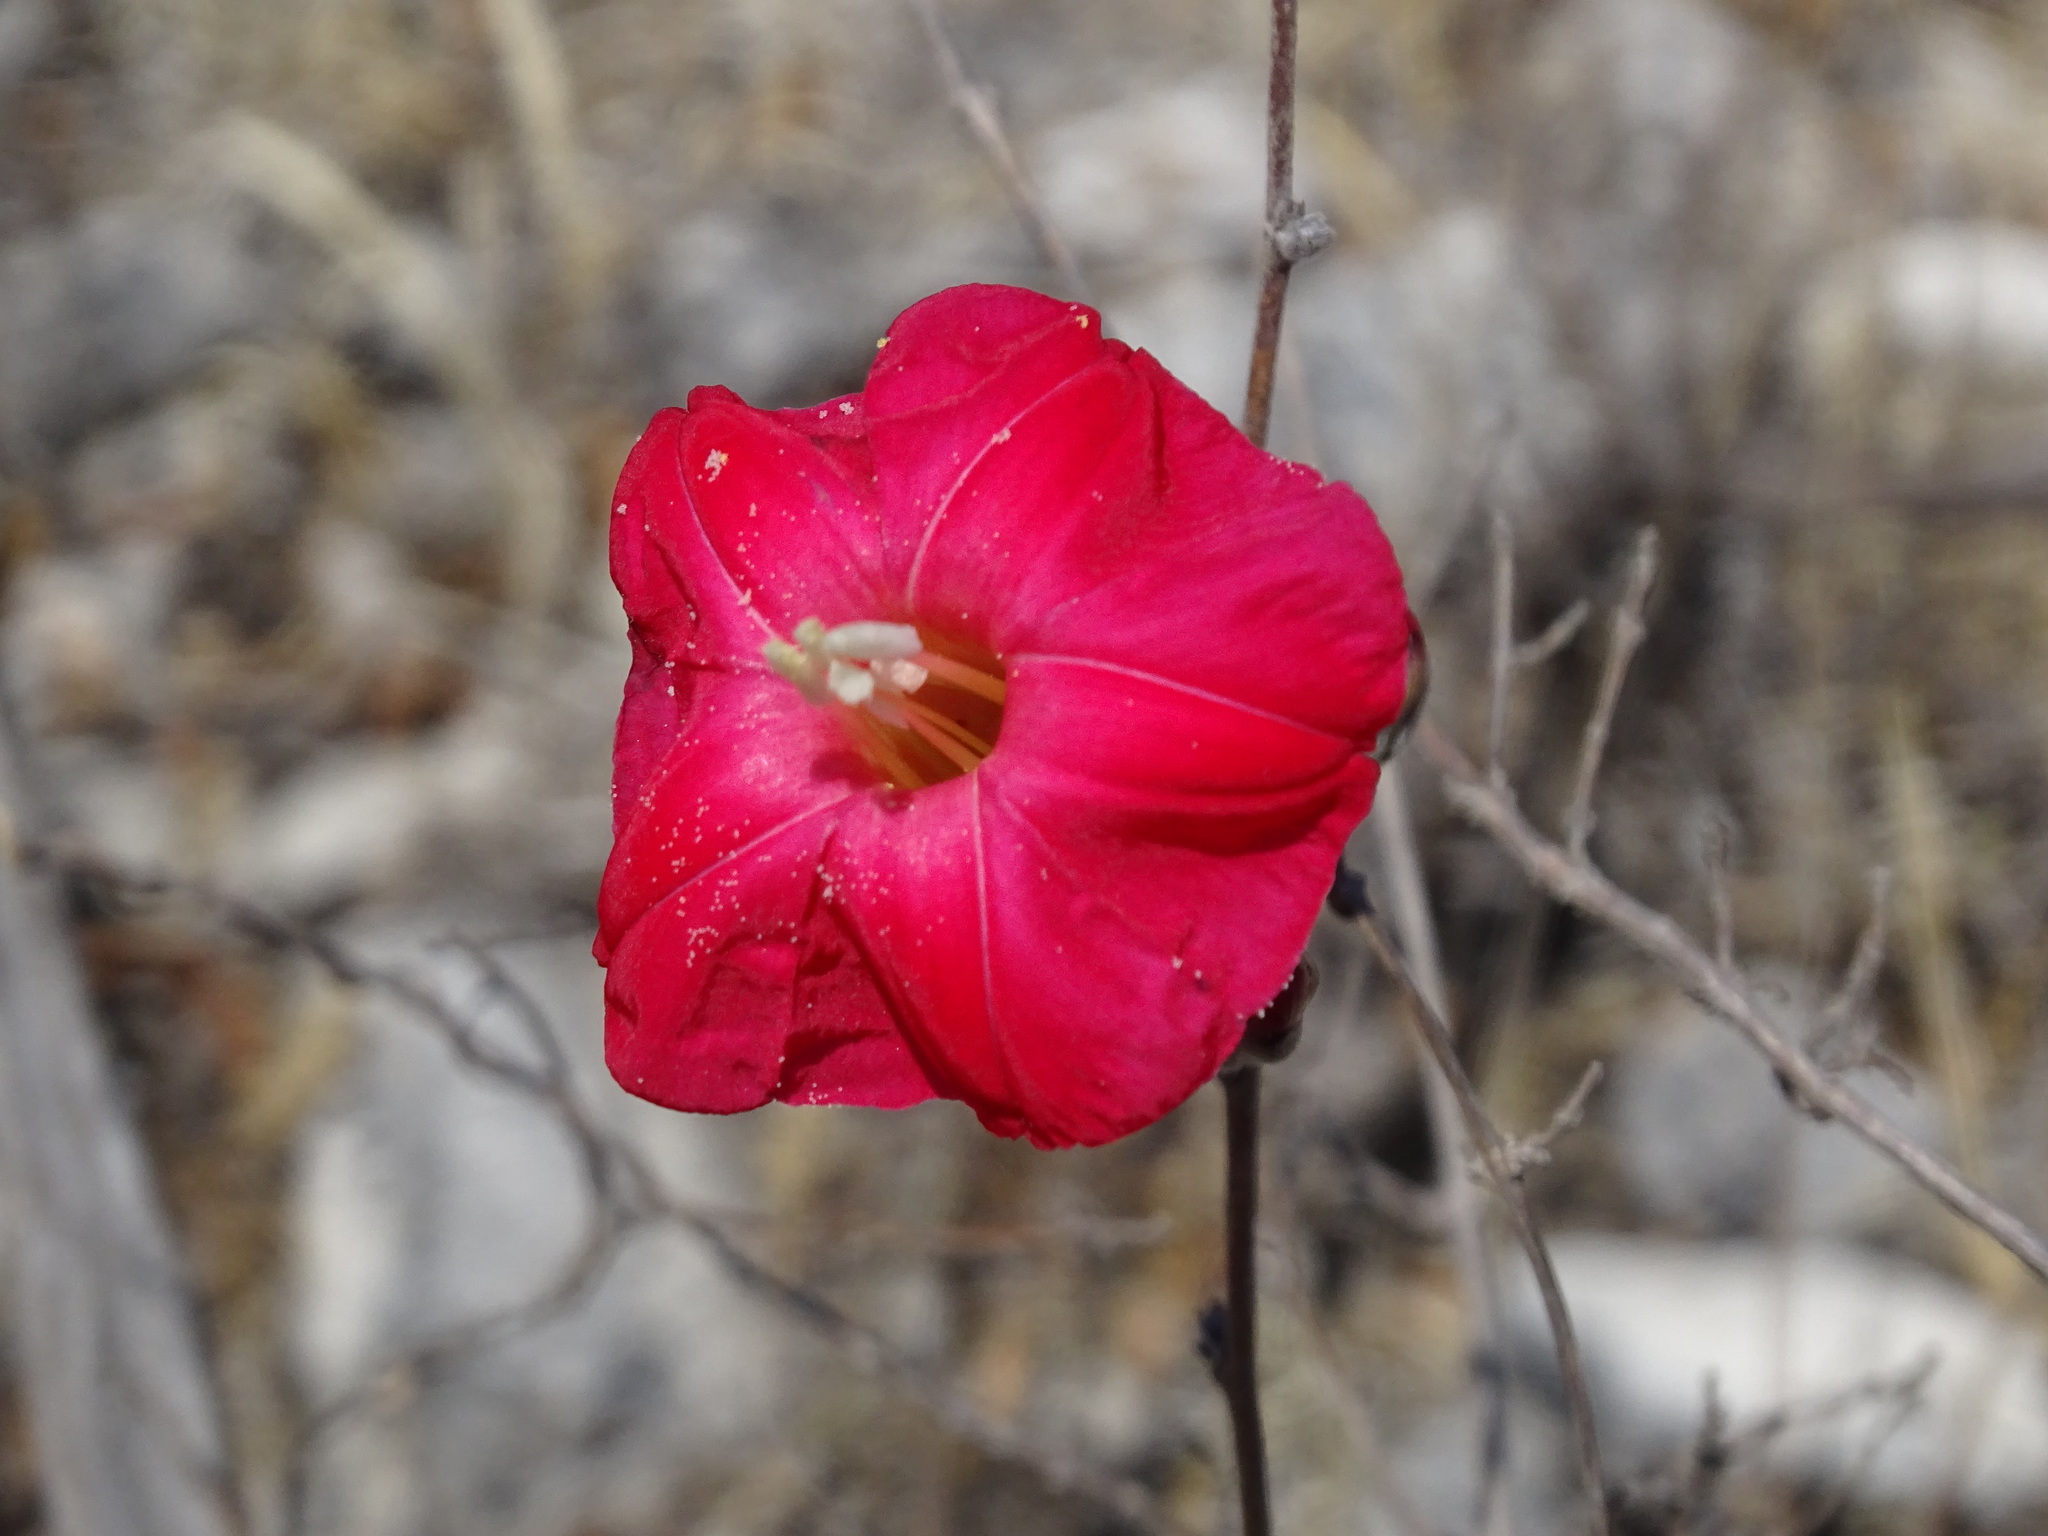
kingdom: Plantae
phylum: Tracheophyta
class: Magnoliopsida
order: Solanales
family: Convolvulaceae
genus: Ipomoea
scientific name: Ipomoea conzattii
